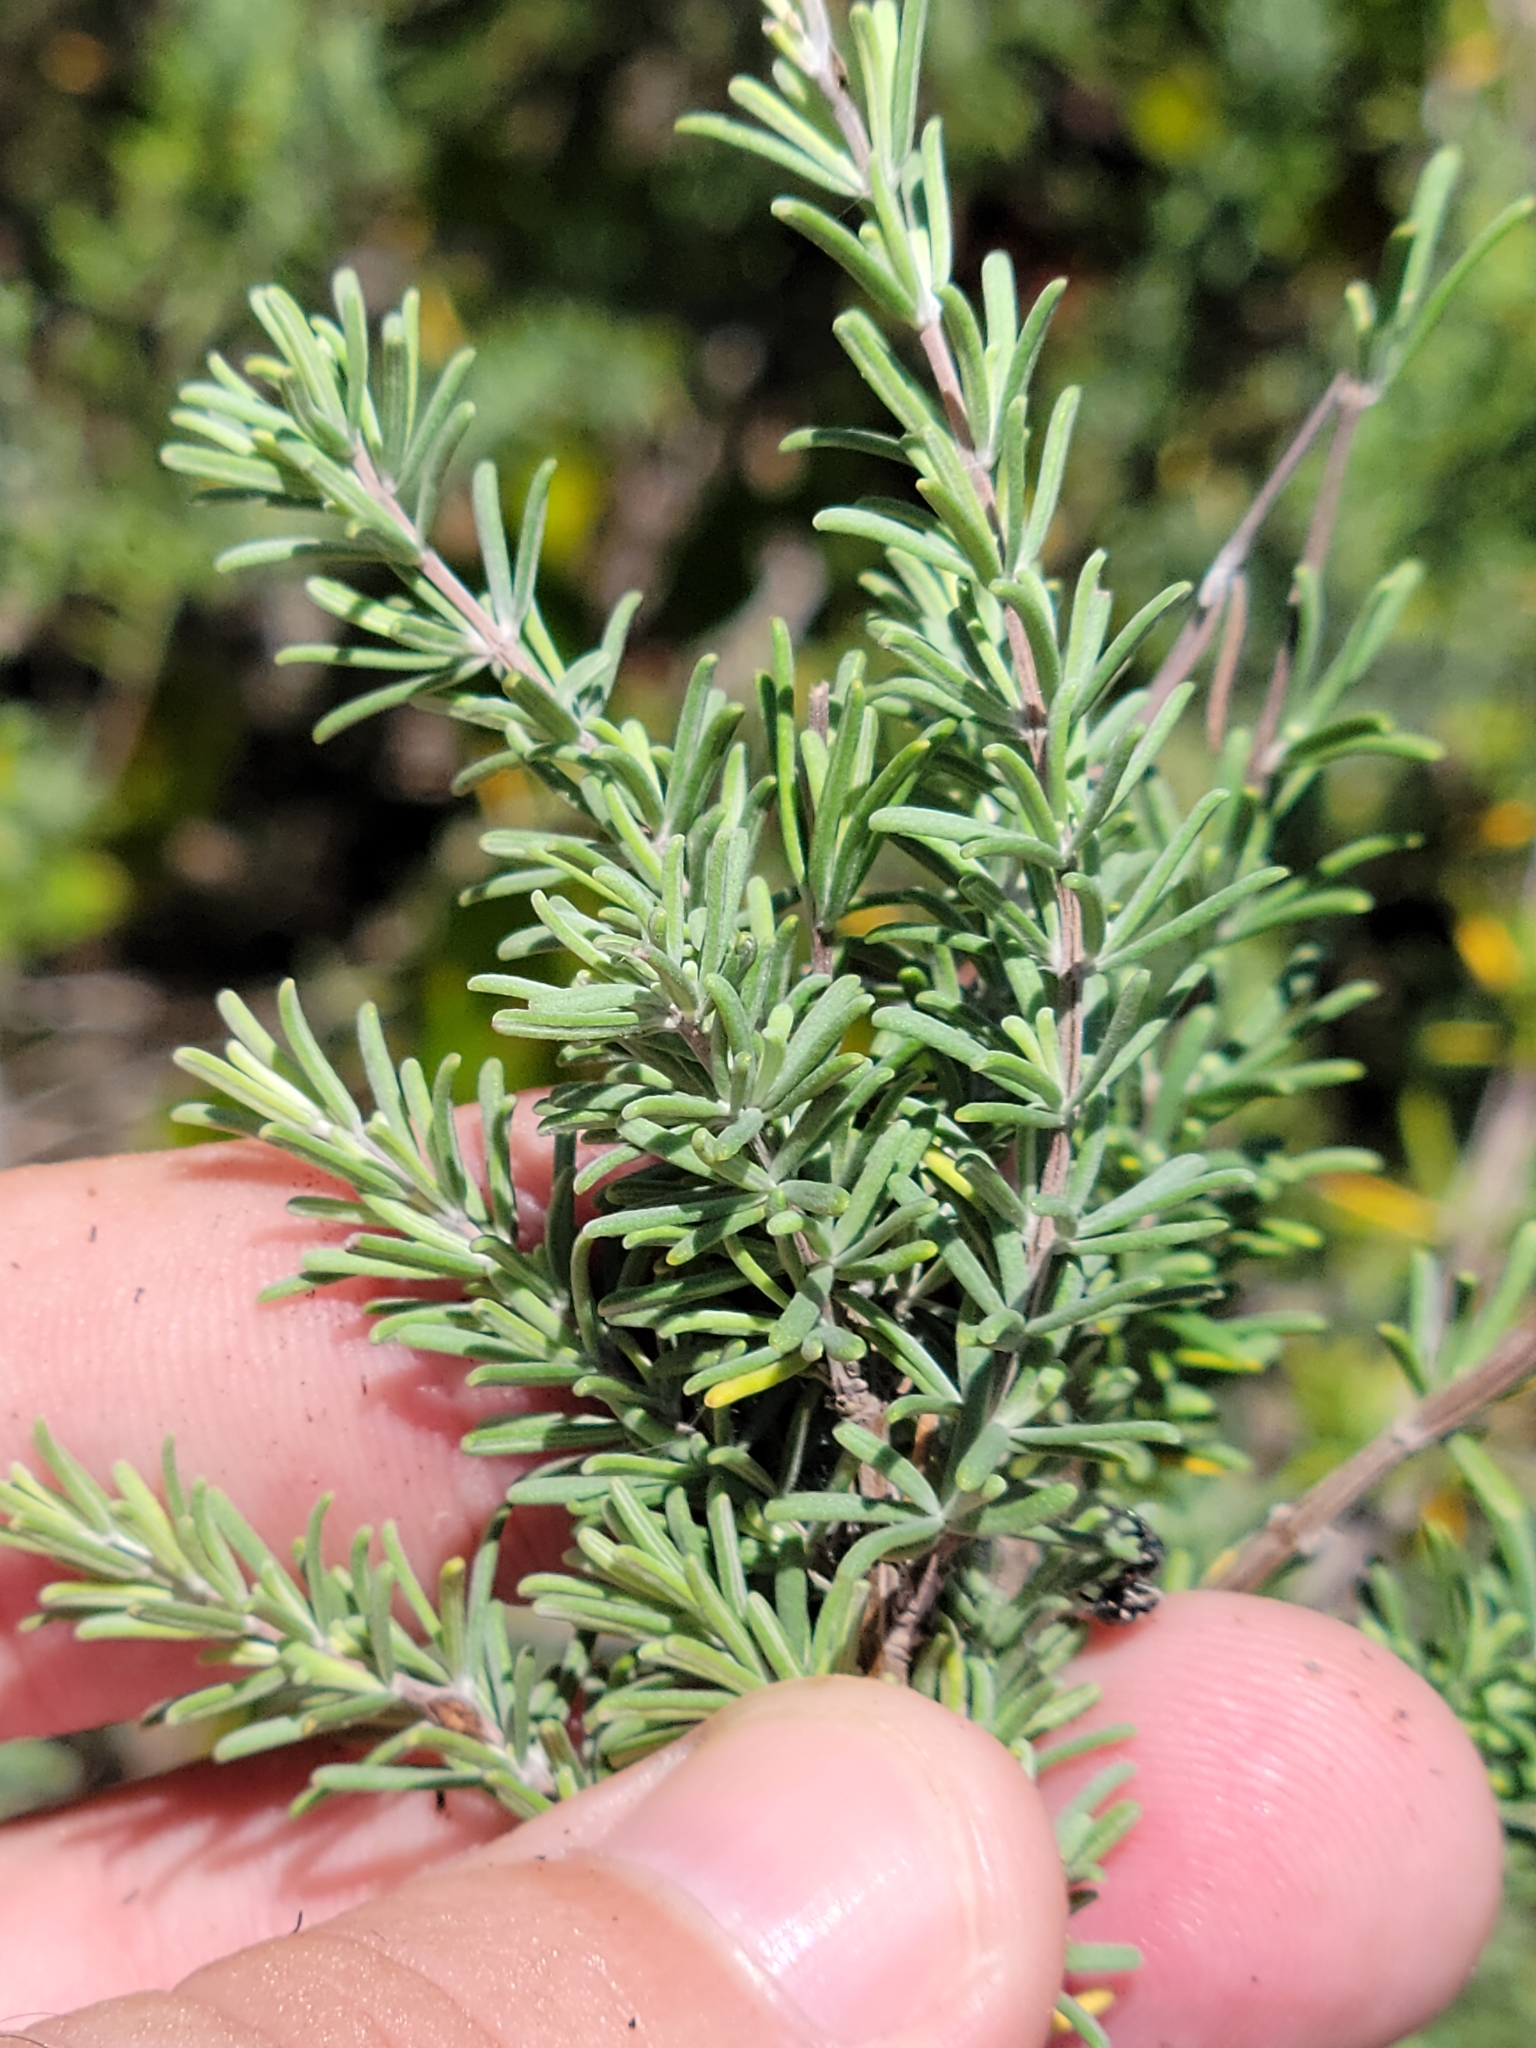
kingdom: Plantae
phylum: Tracheophyta
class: Magnoliopsida
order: Lamiales
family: Lamiaceae
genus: Conradina
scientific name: Conradina canescens
